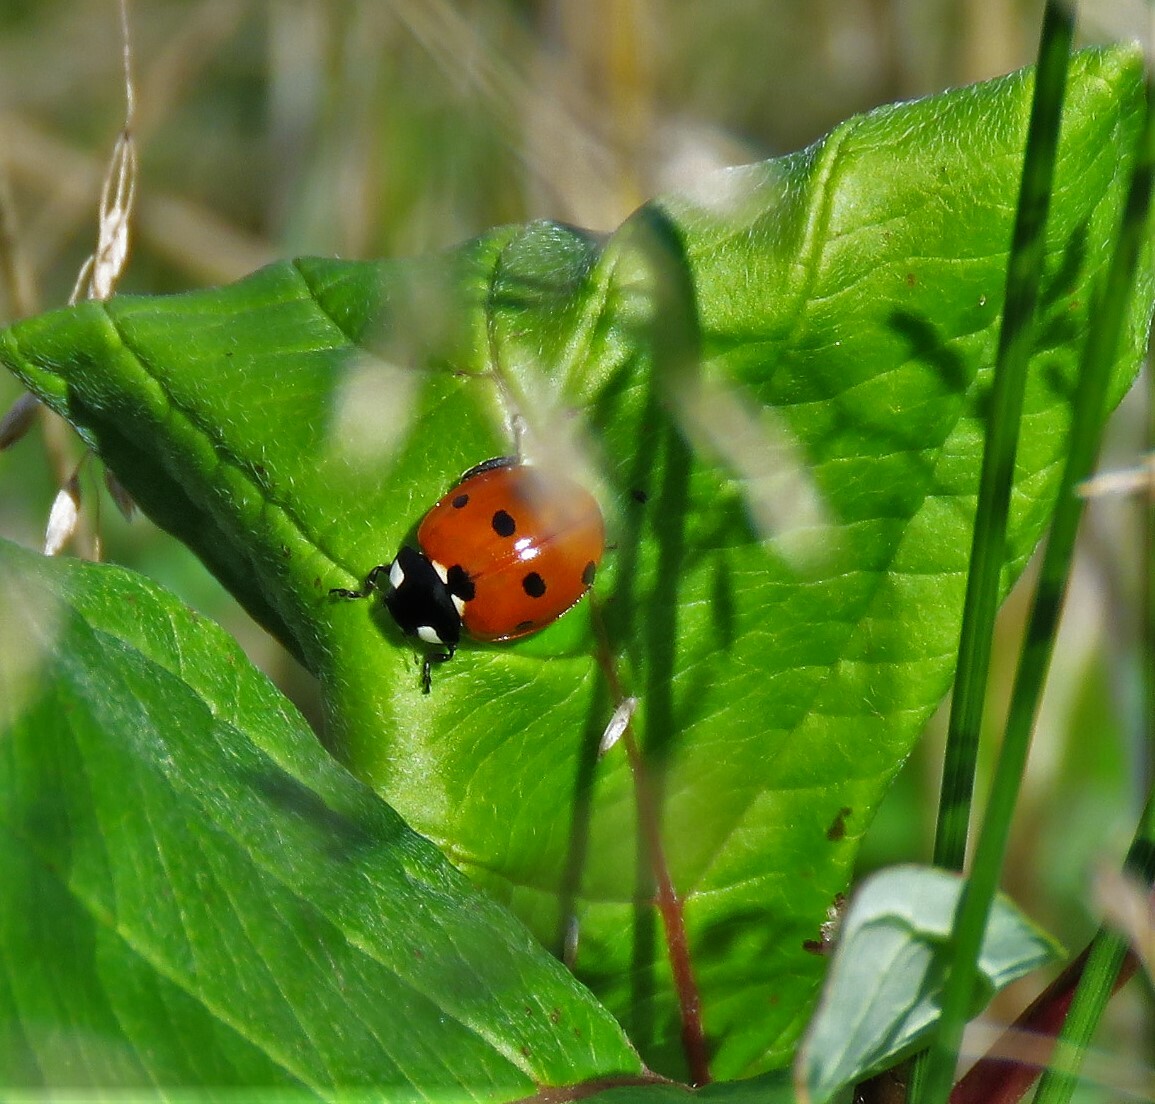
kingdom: Animalia
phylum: Arthropoda
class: Insecta
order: Coleoptera
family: Coccinellidae
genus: Coccinella
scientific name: Coccinella septempunctata
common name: Sevenspotted lady beetle
